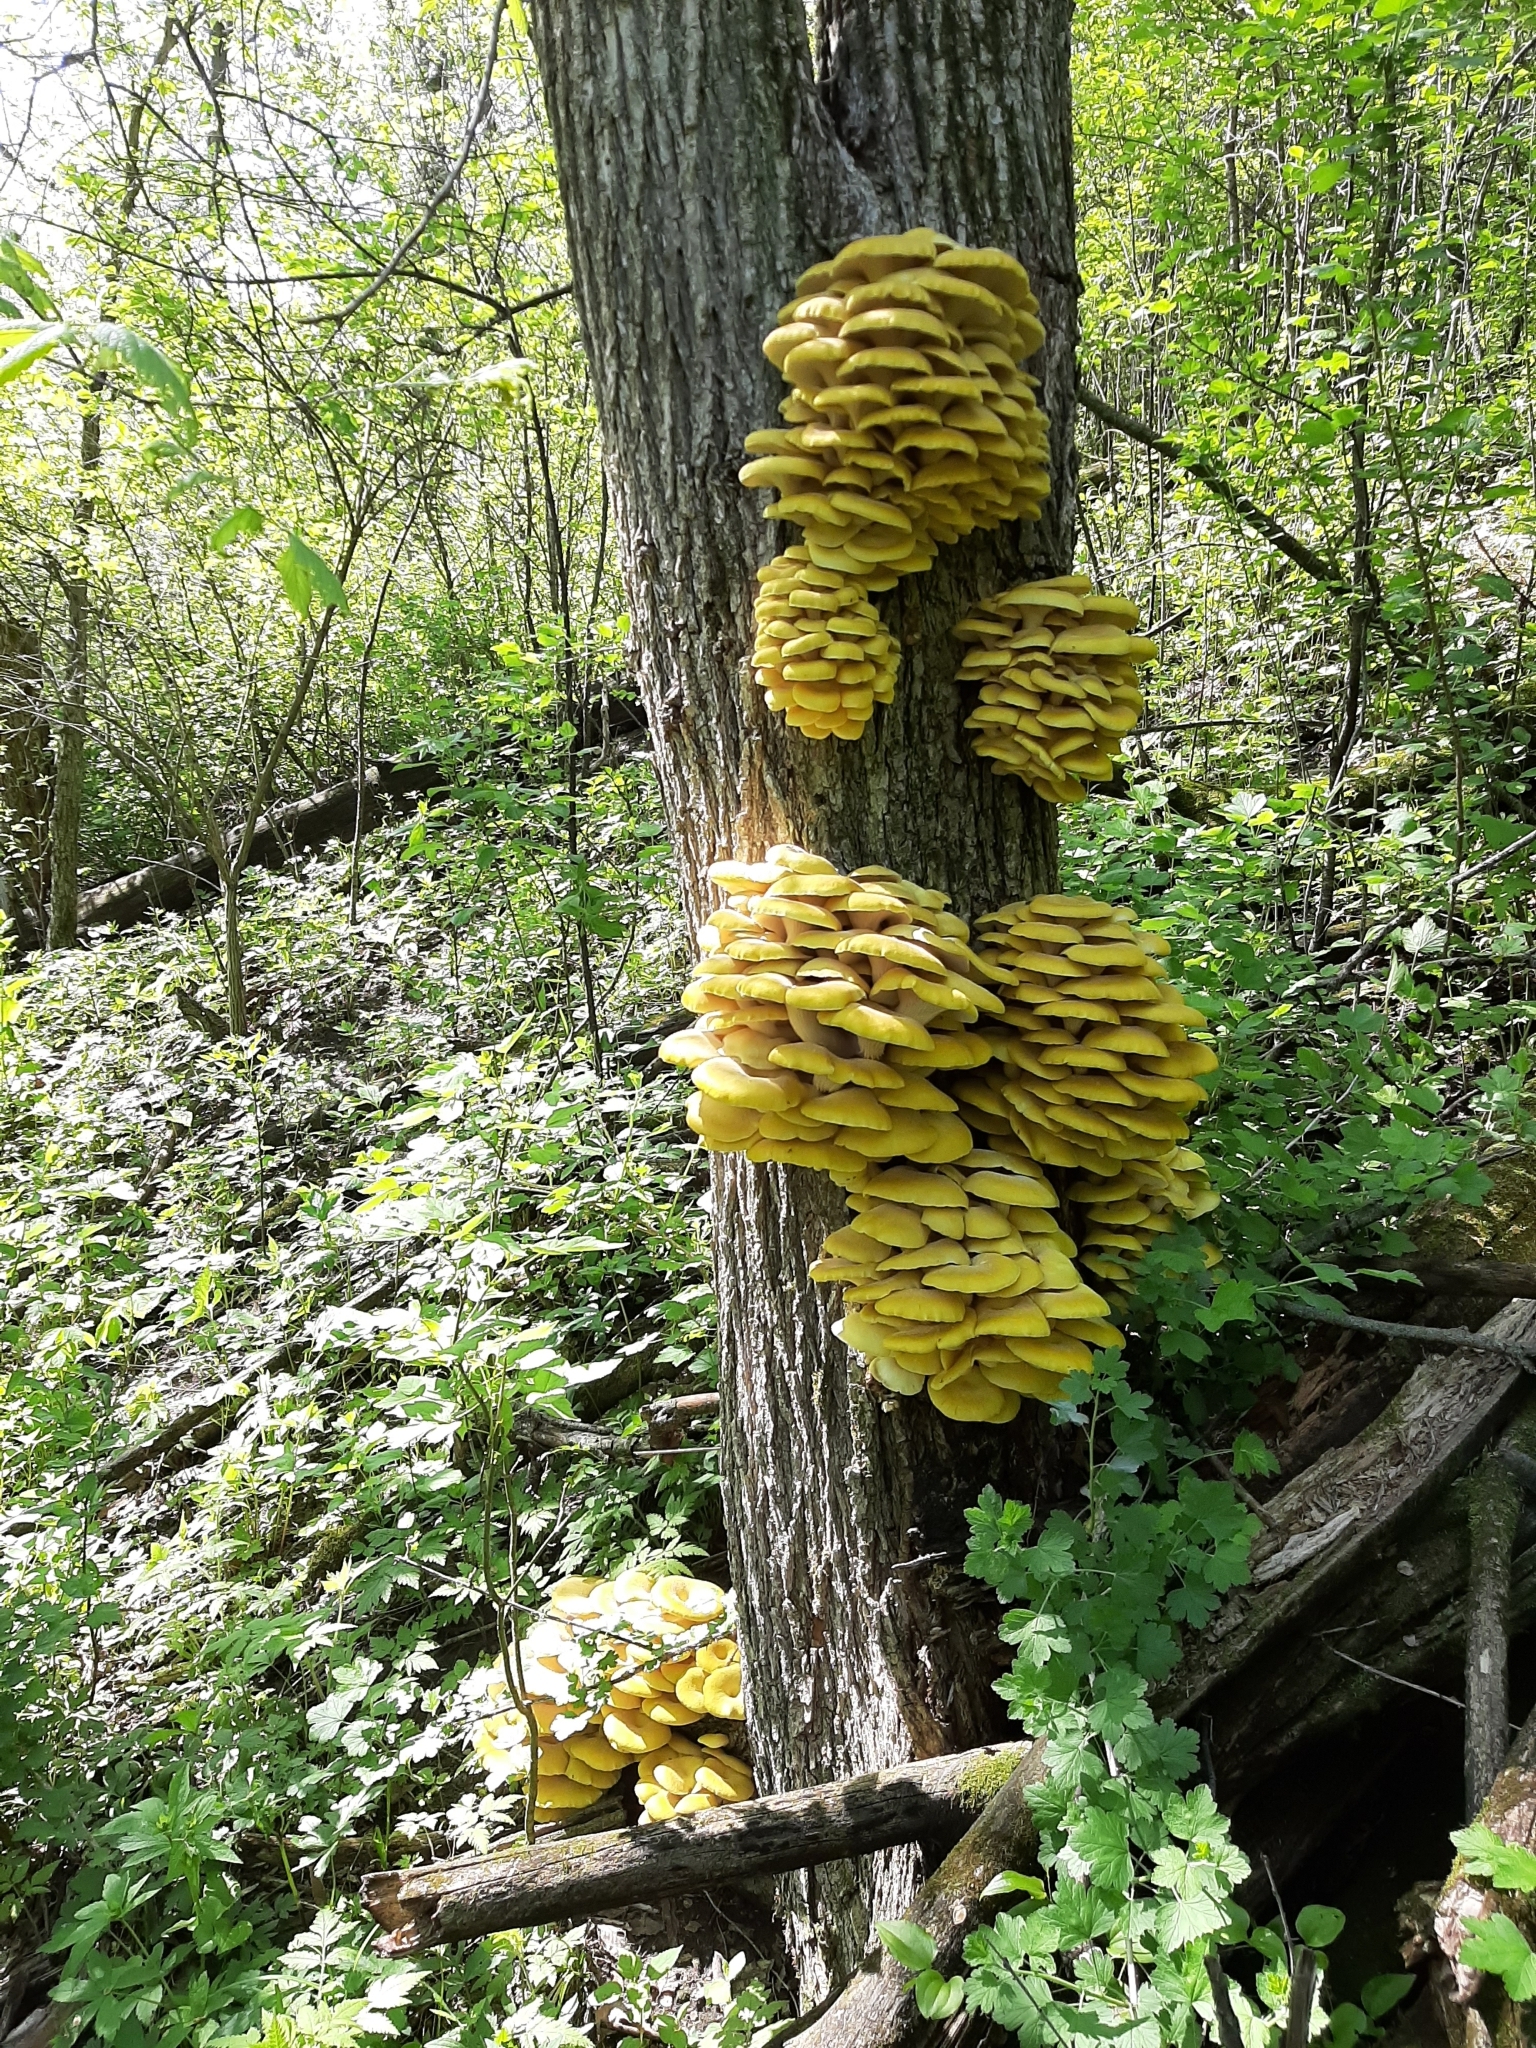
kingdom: Fungi
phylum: Basidiomycota
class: Agaricomycetes
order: Agaricales
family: Pleurotaceae
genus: Pleurotus
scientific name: Pleurotus citrinopileatus
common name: Golden oyster mushroom
